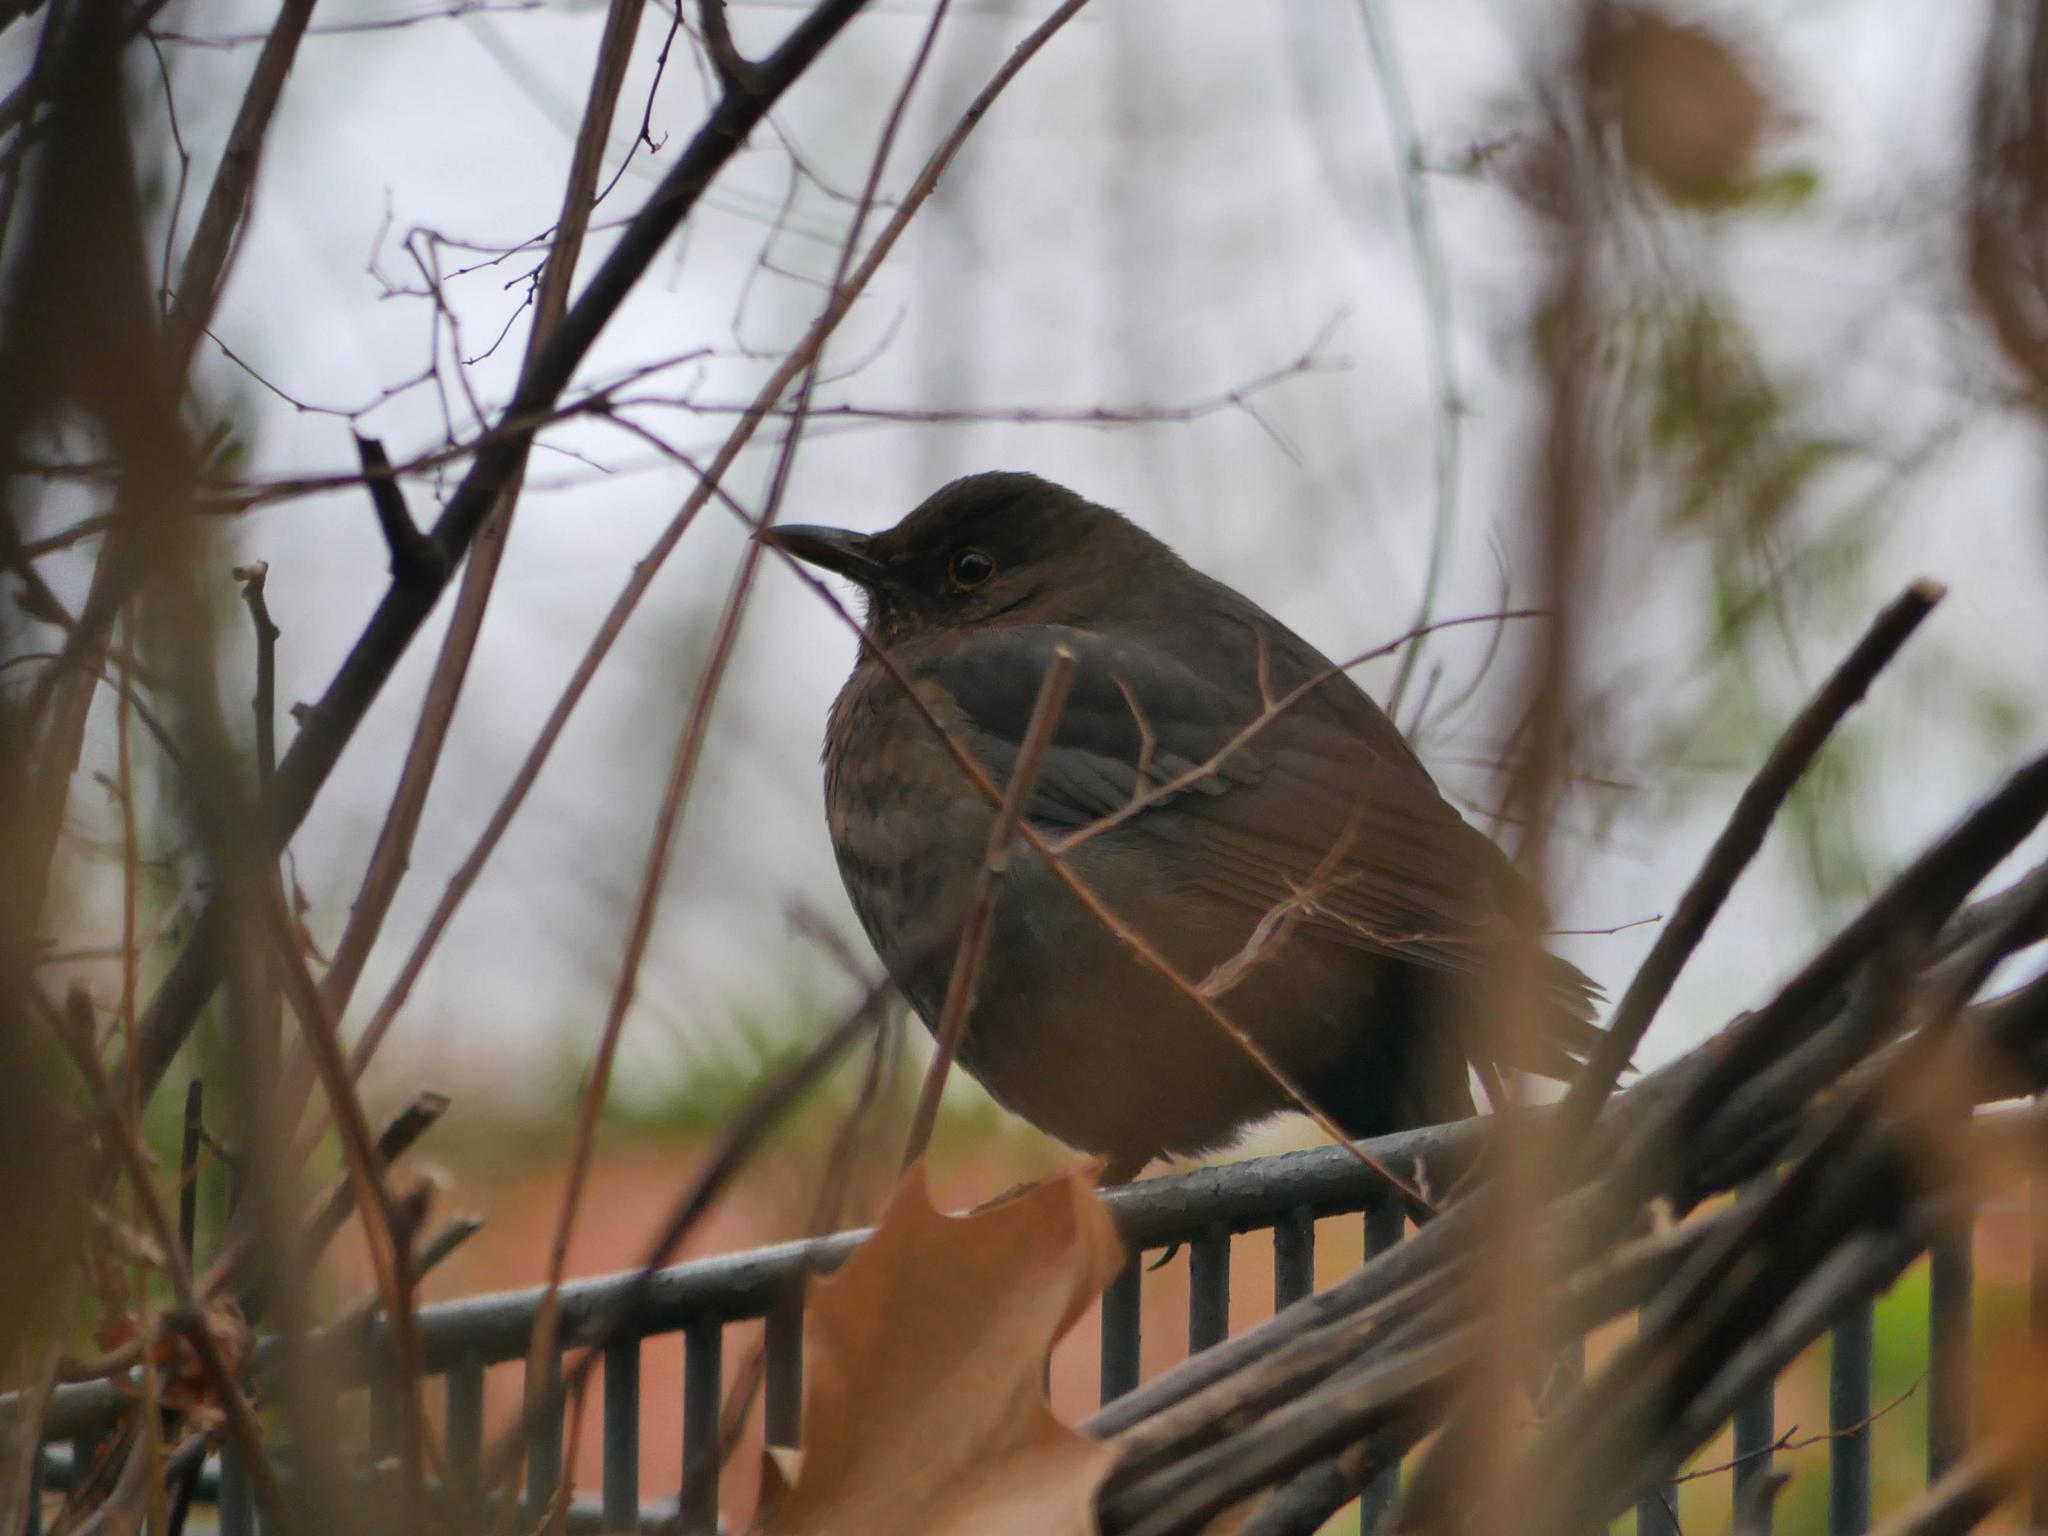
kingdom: Animalia
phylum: Chordata
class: Aves
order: Passeriformes
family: Turdidae
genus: Turdus
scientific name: Turdus merula
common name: Common blackbird
